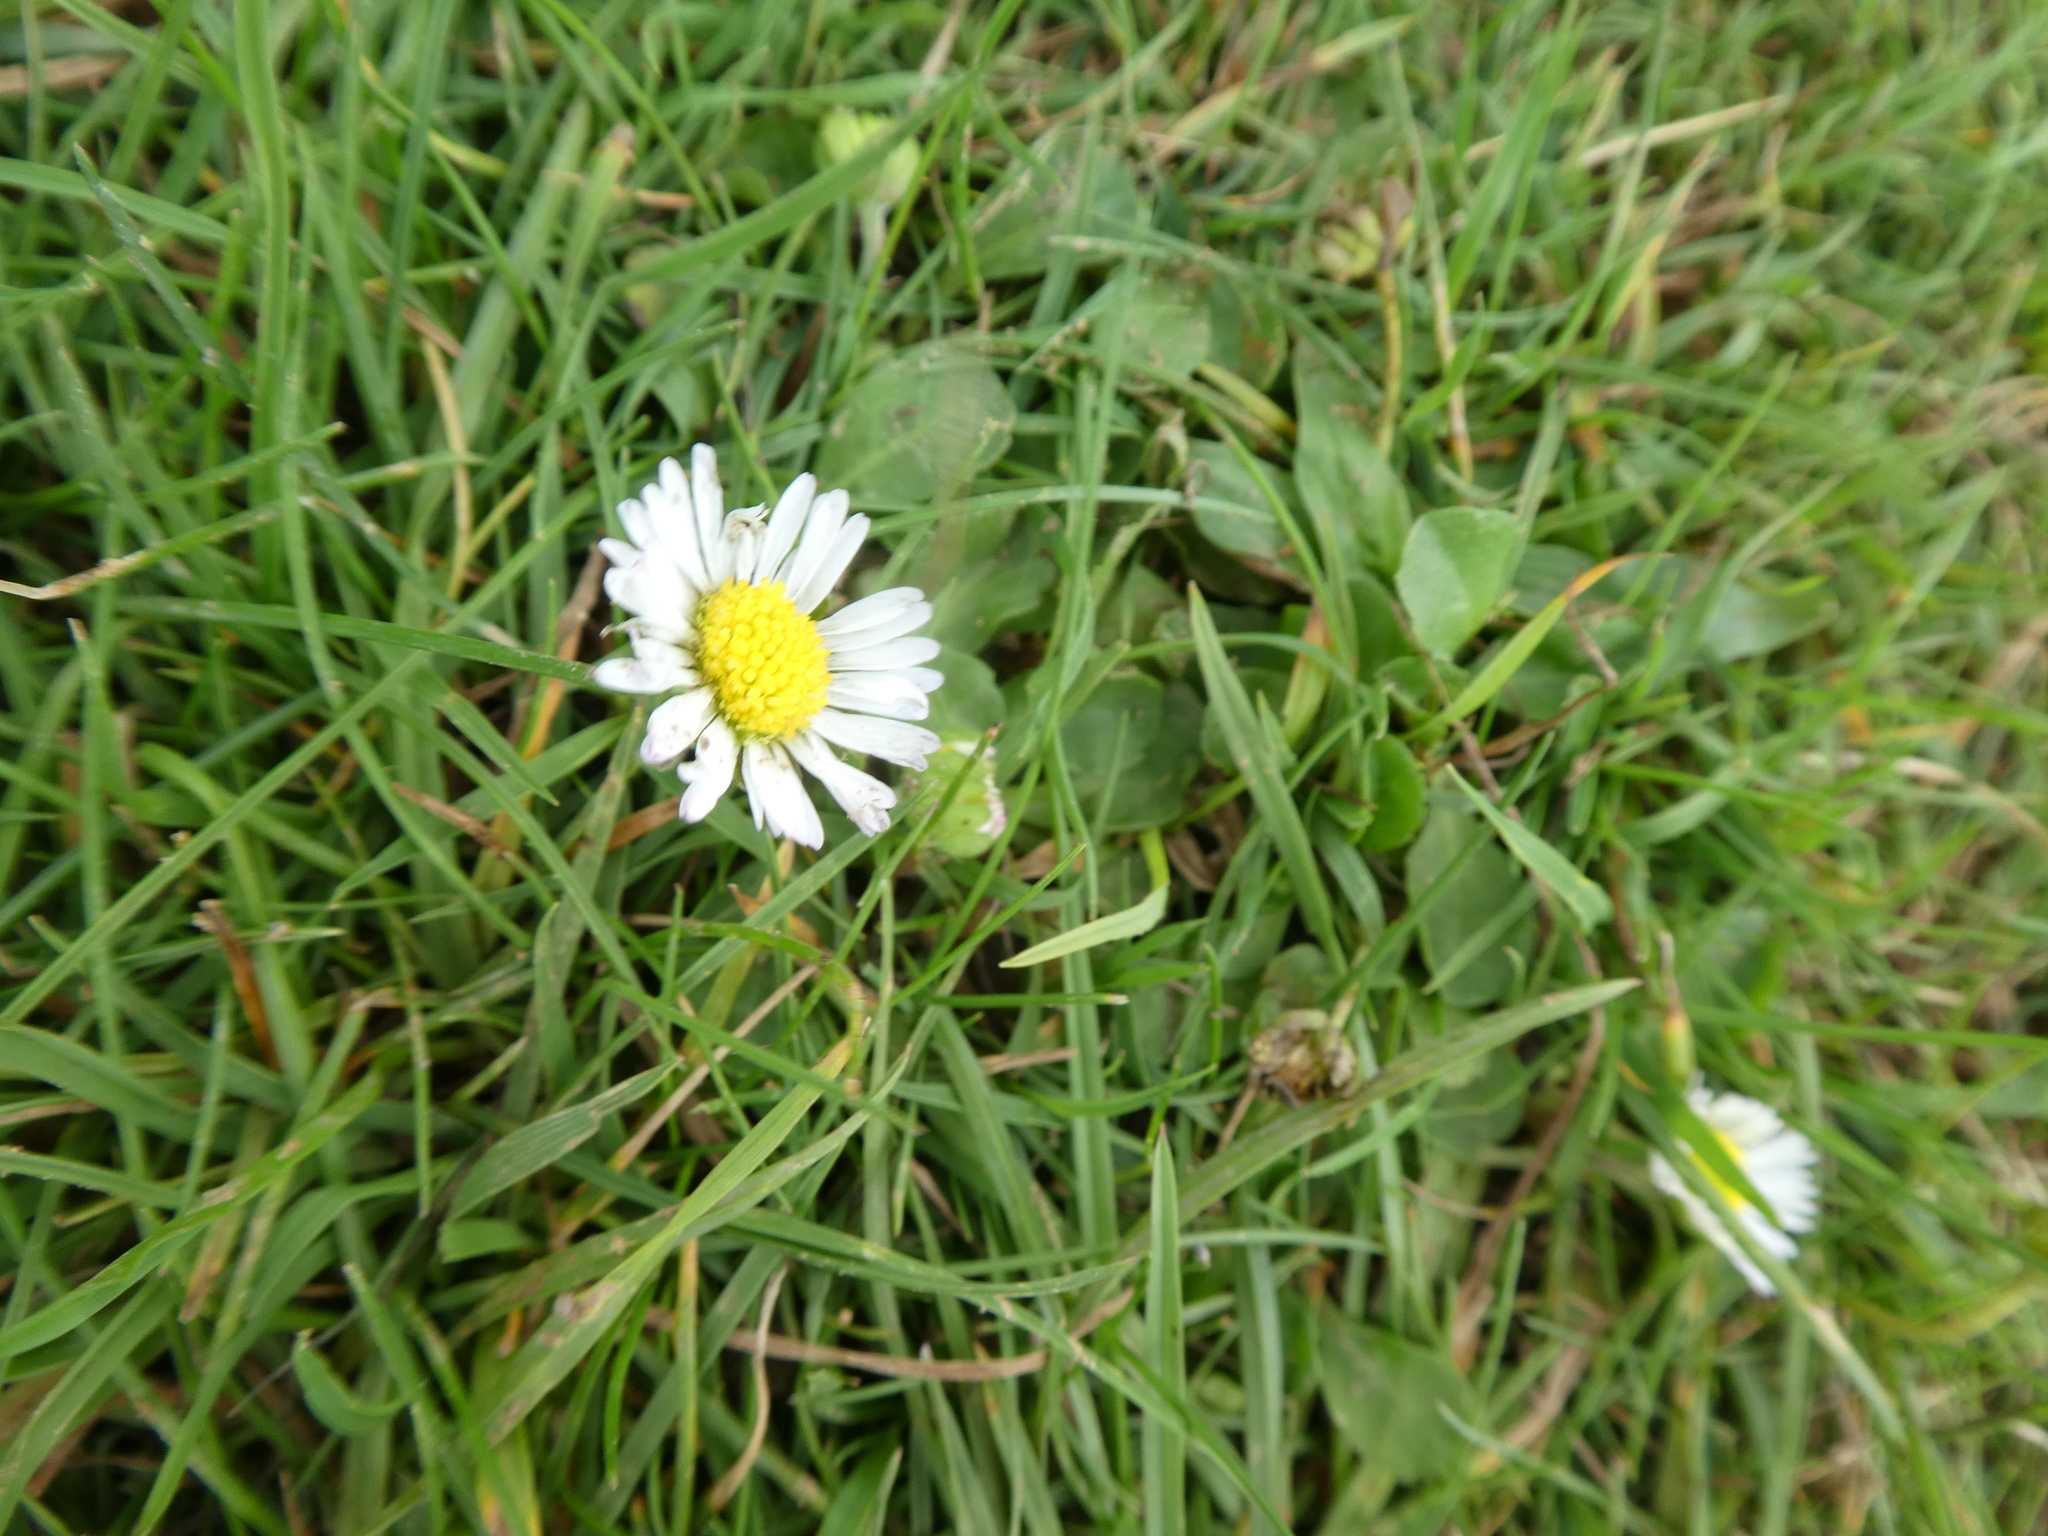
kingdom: Plantae
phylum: Tracheophyta
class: Magnoliopsida
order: Asterales
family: Asteraceae
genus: Bellis
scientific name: Bellis perennis
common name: Lawndaisy
